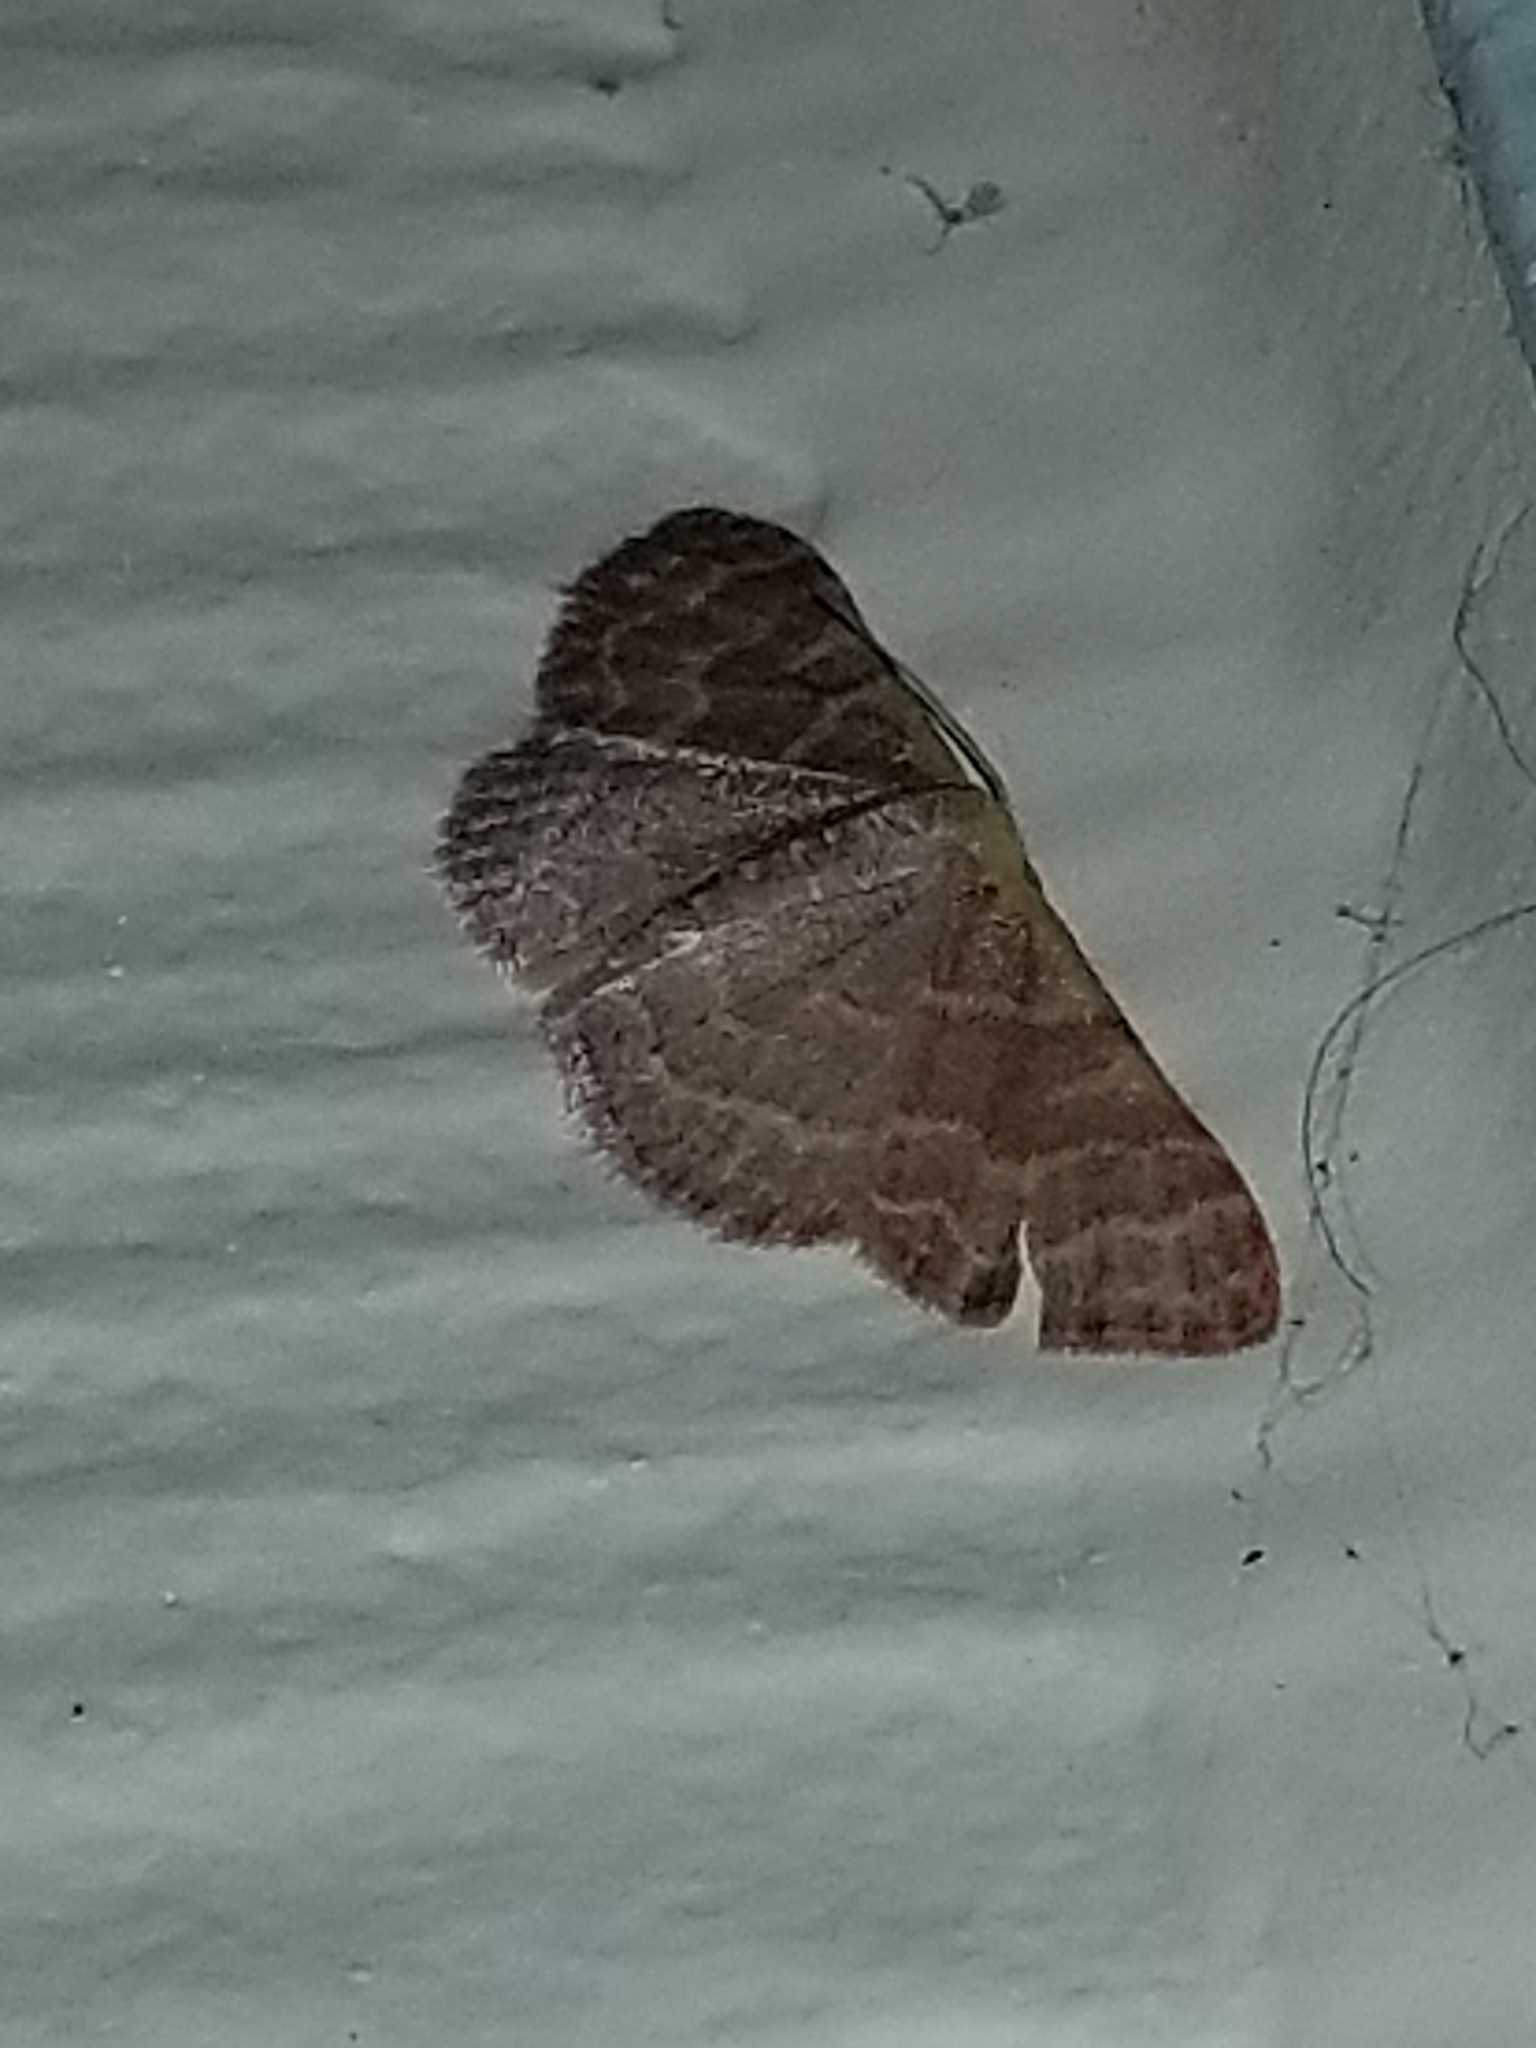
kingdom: Animalia
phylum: Arthropoda
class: Insecta
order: Lepidoptera
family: Geometridae
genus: Leptostales
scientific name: Leptostales pannaria
